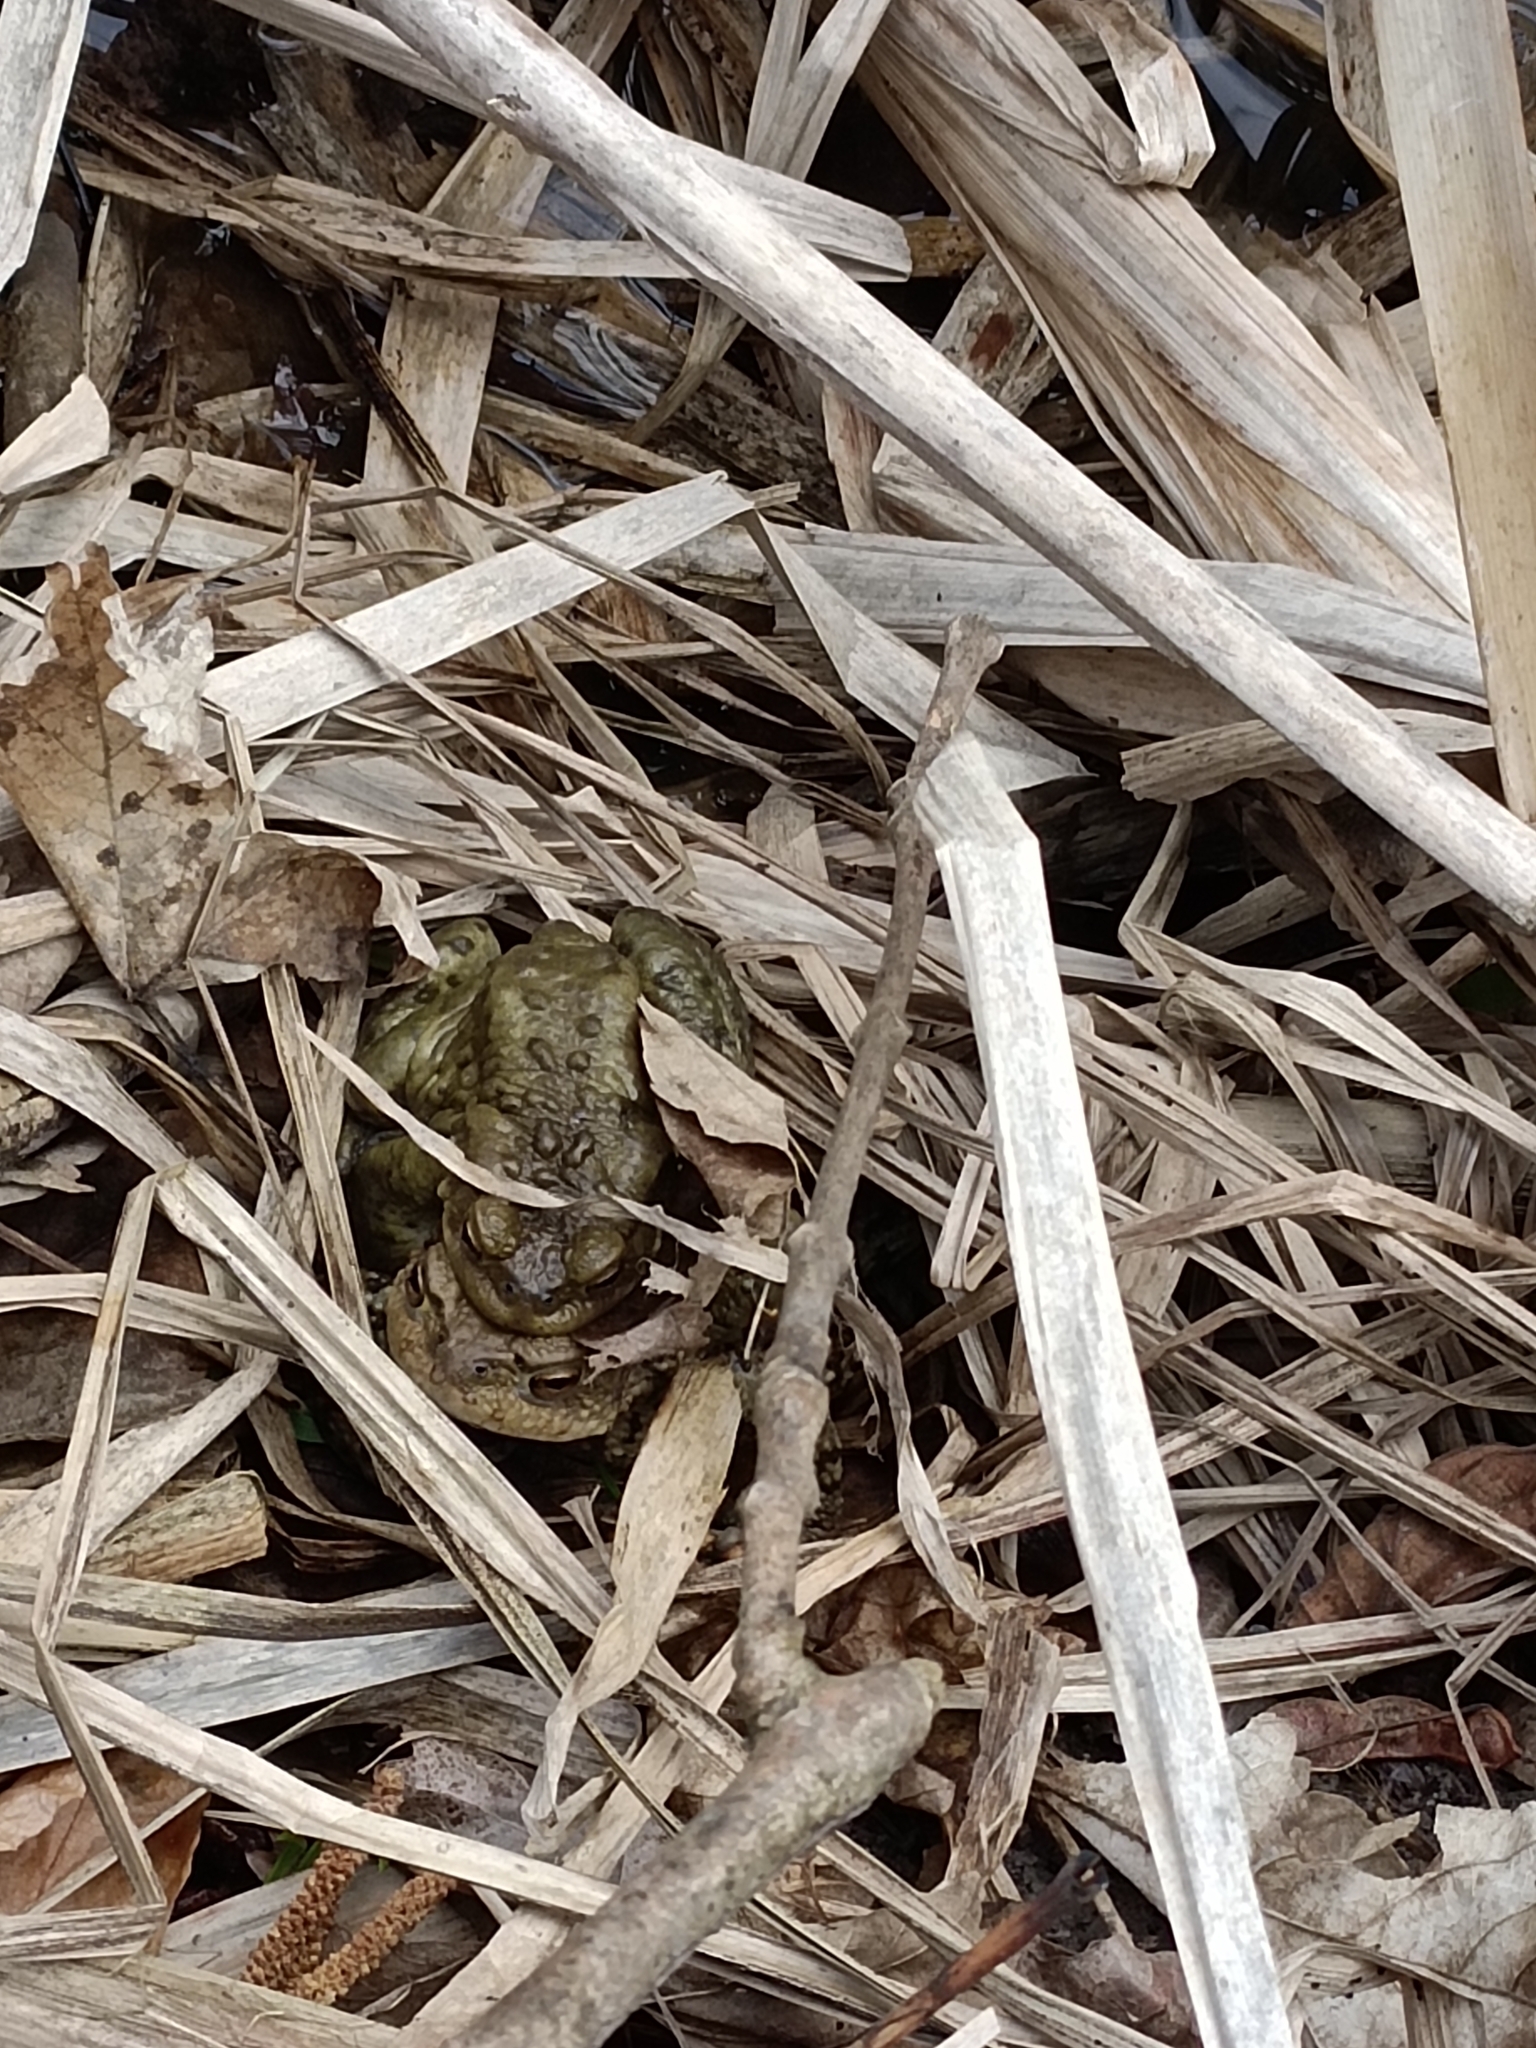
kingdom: Animalia
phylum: Chordata
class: Amphibia
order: Anura
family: Bufonidae
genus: Bufo
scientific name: Bufo bufo
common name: Common toad
